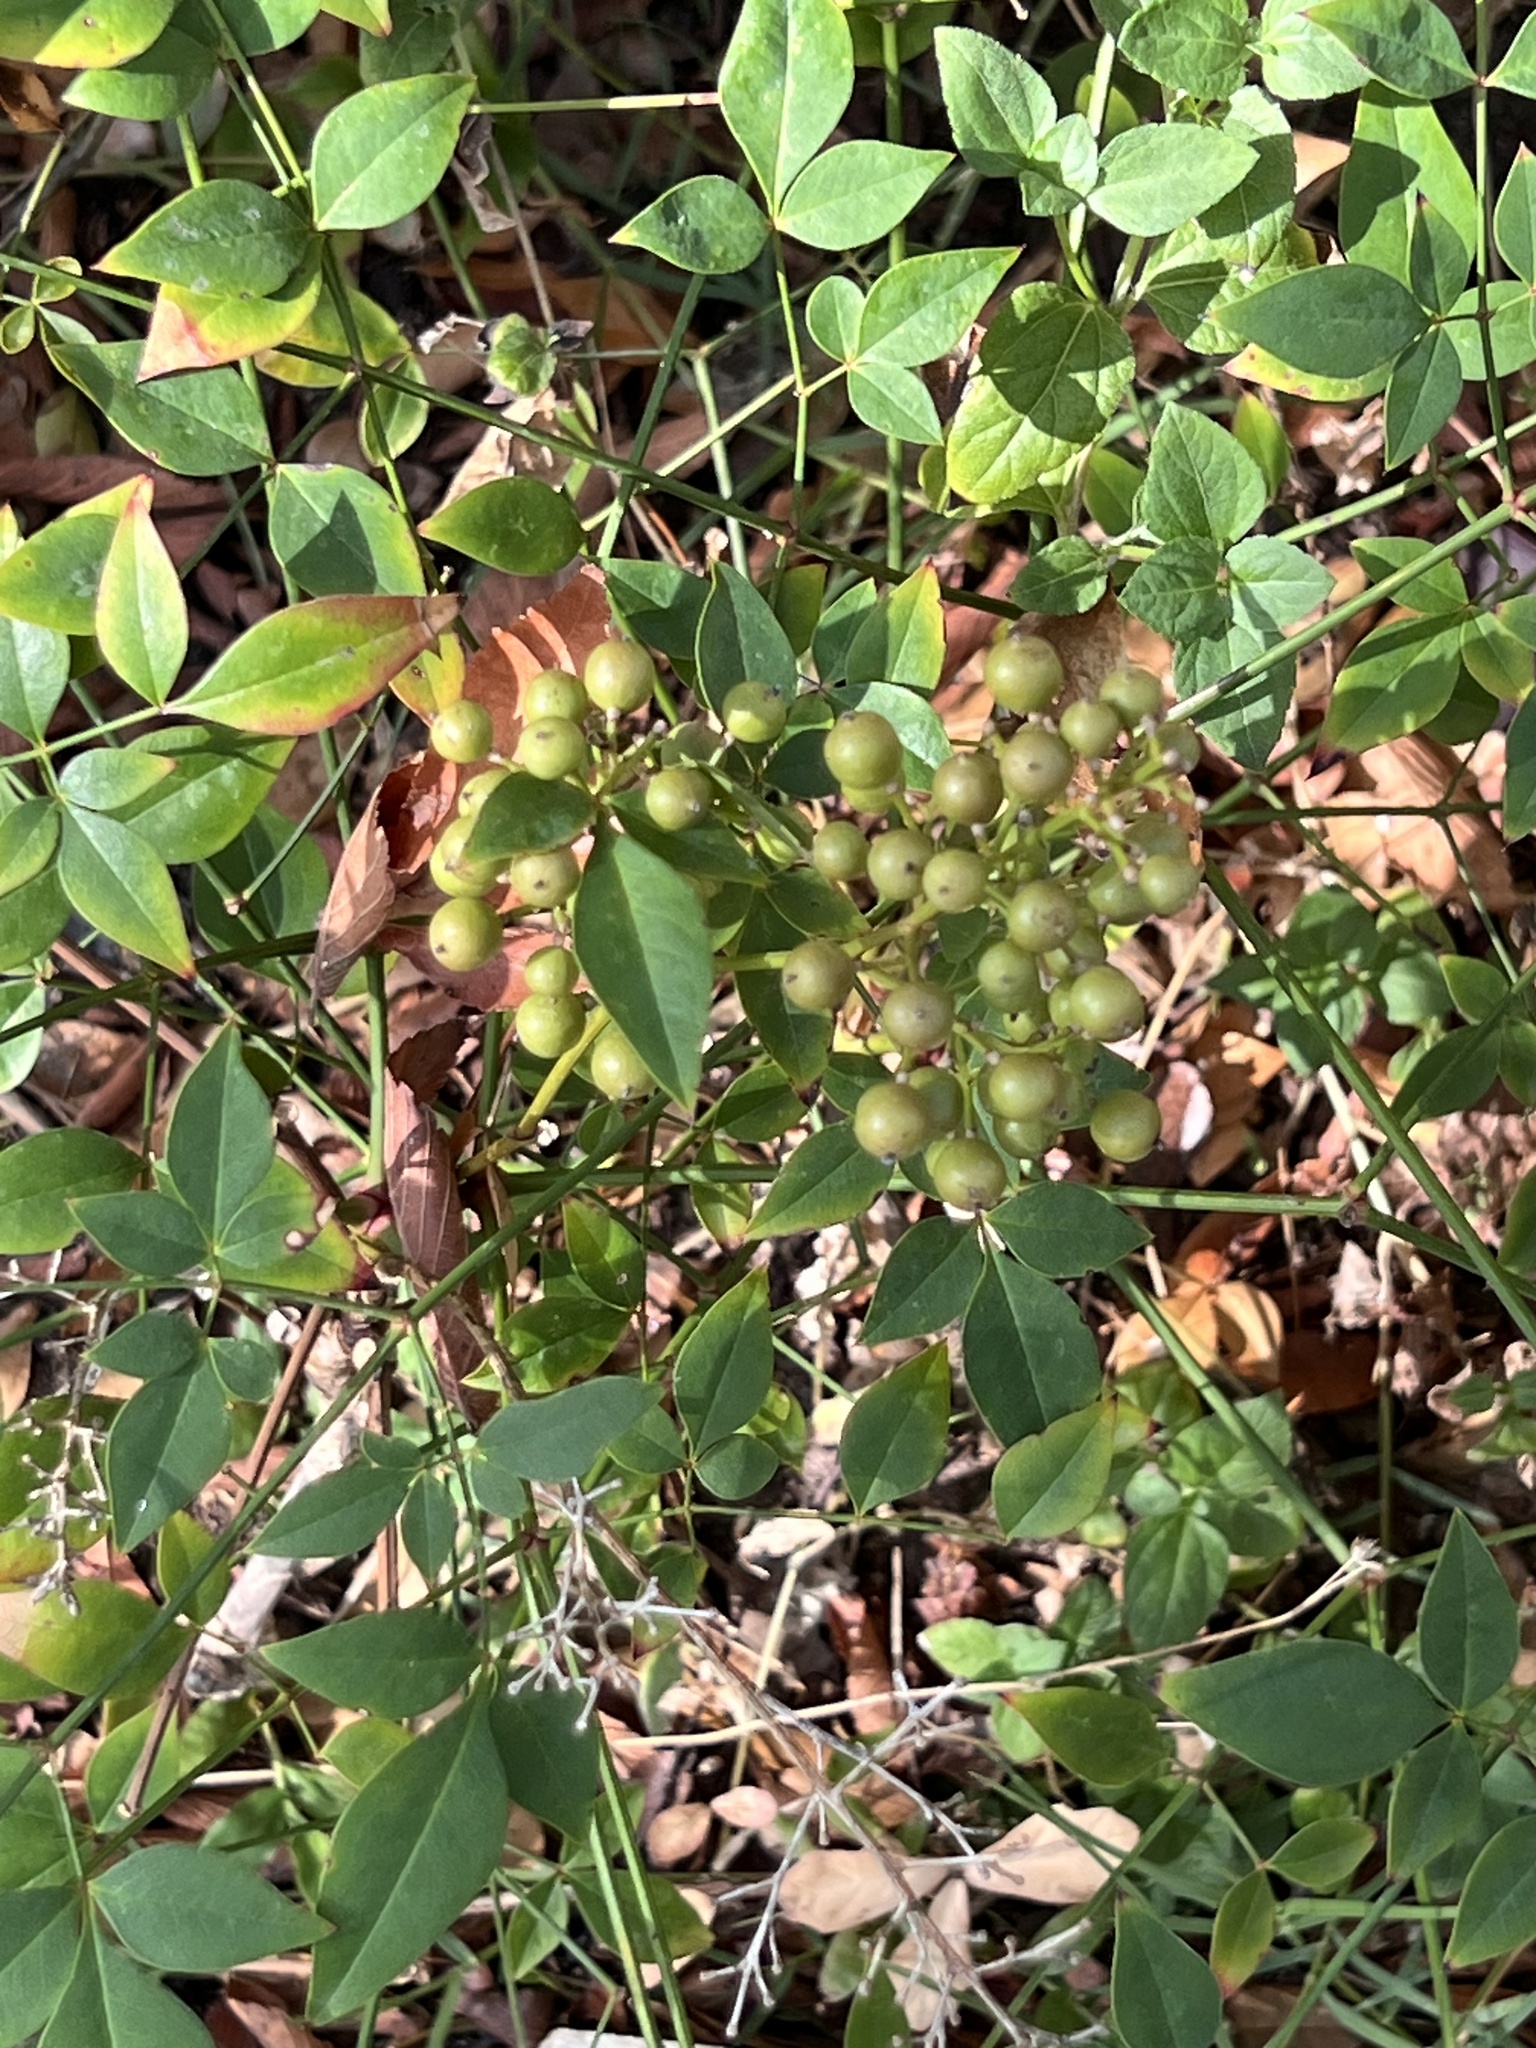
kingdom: Plantae
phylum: Tracheophyta
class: Magnoliopsida
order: Ranunculales
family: Berberidaceae
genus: Nandina
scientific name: Nandina domestica
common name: Sacred bamboo
